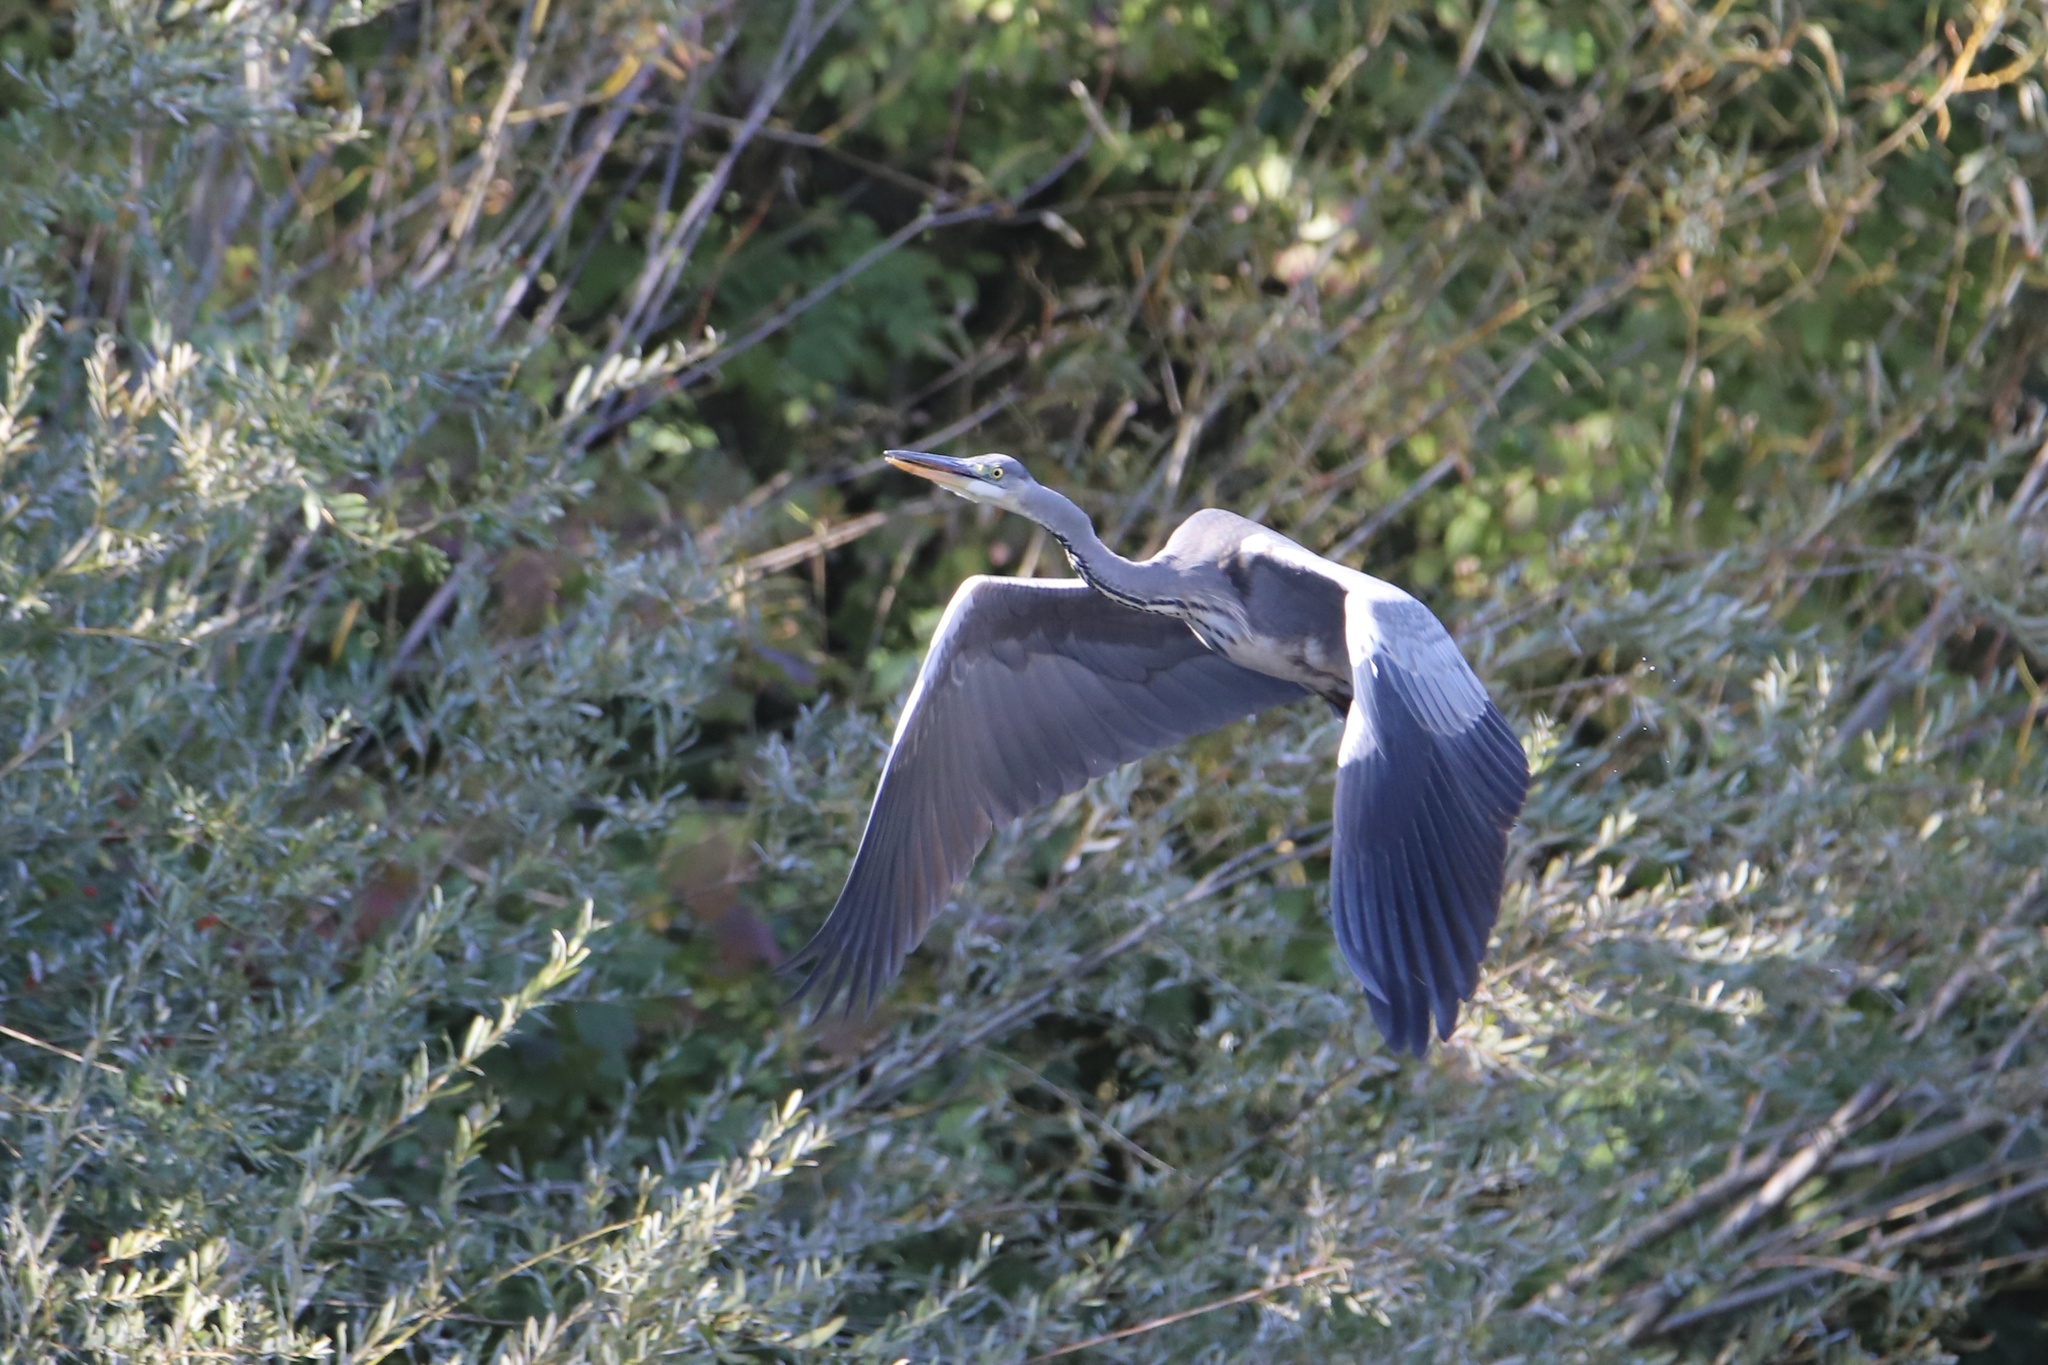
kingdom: Animalia
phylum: Chordata
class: Aves
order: Pelecaniformes
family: Ardeidae
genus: Ardea
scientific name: Ardea cinerea
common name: Grey heron
